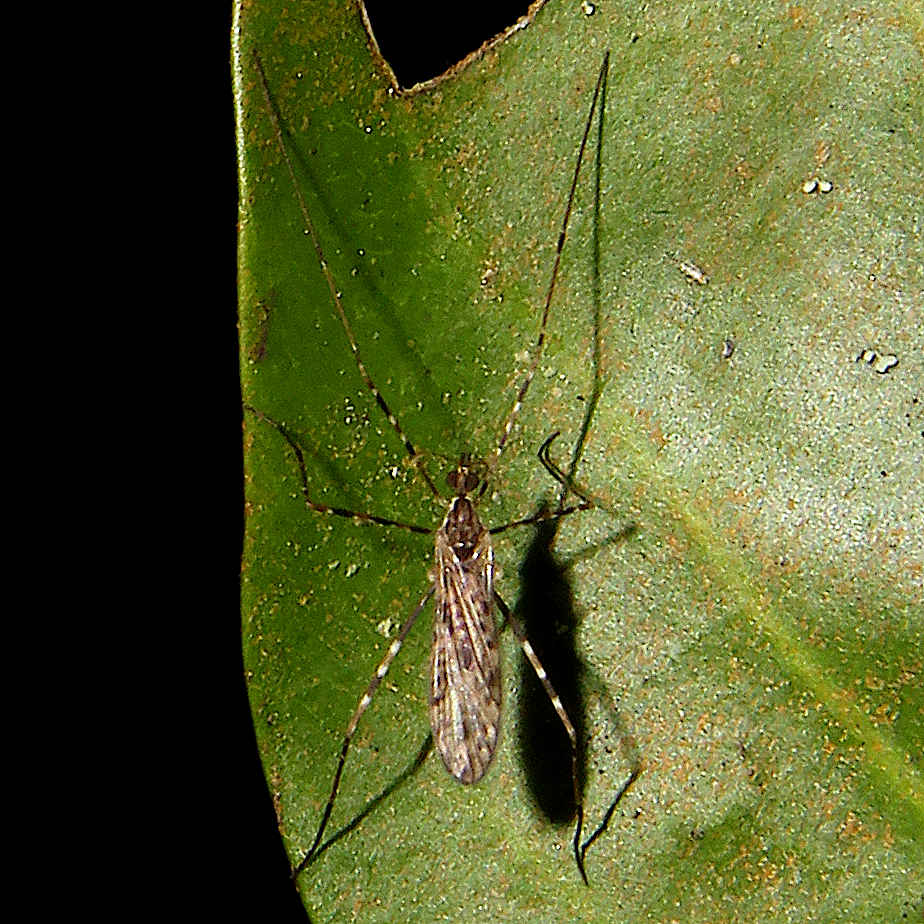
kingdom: Animalia
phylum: Arthropoda
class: Insecta
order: Diptera
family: Limoniidae
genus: Amphineurus
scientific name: Amphineurus hudsoni
